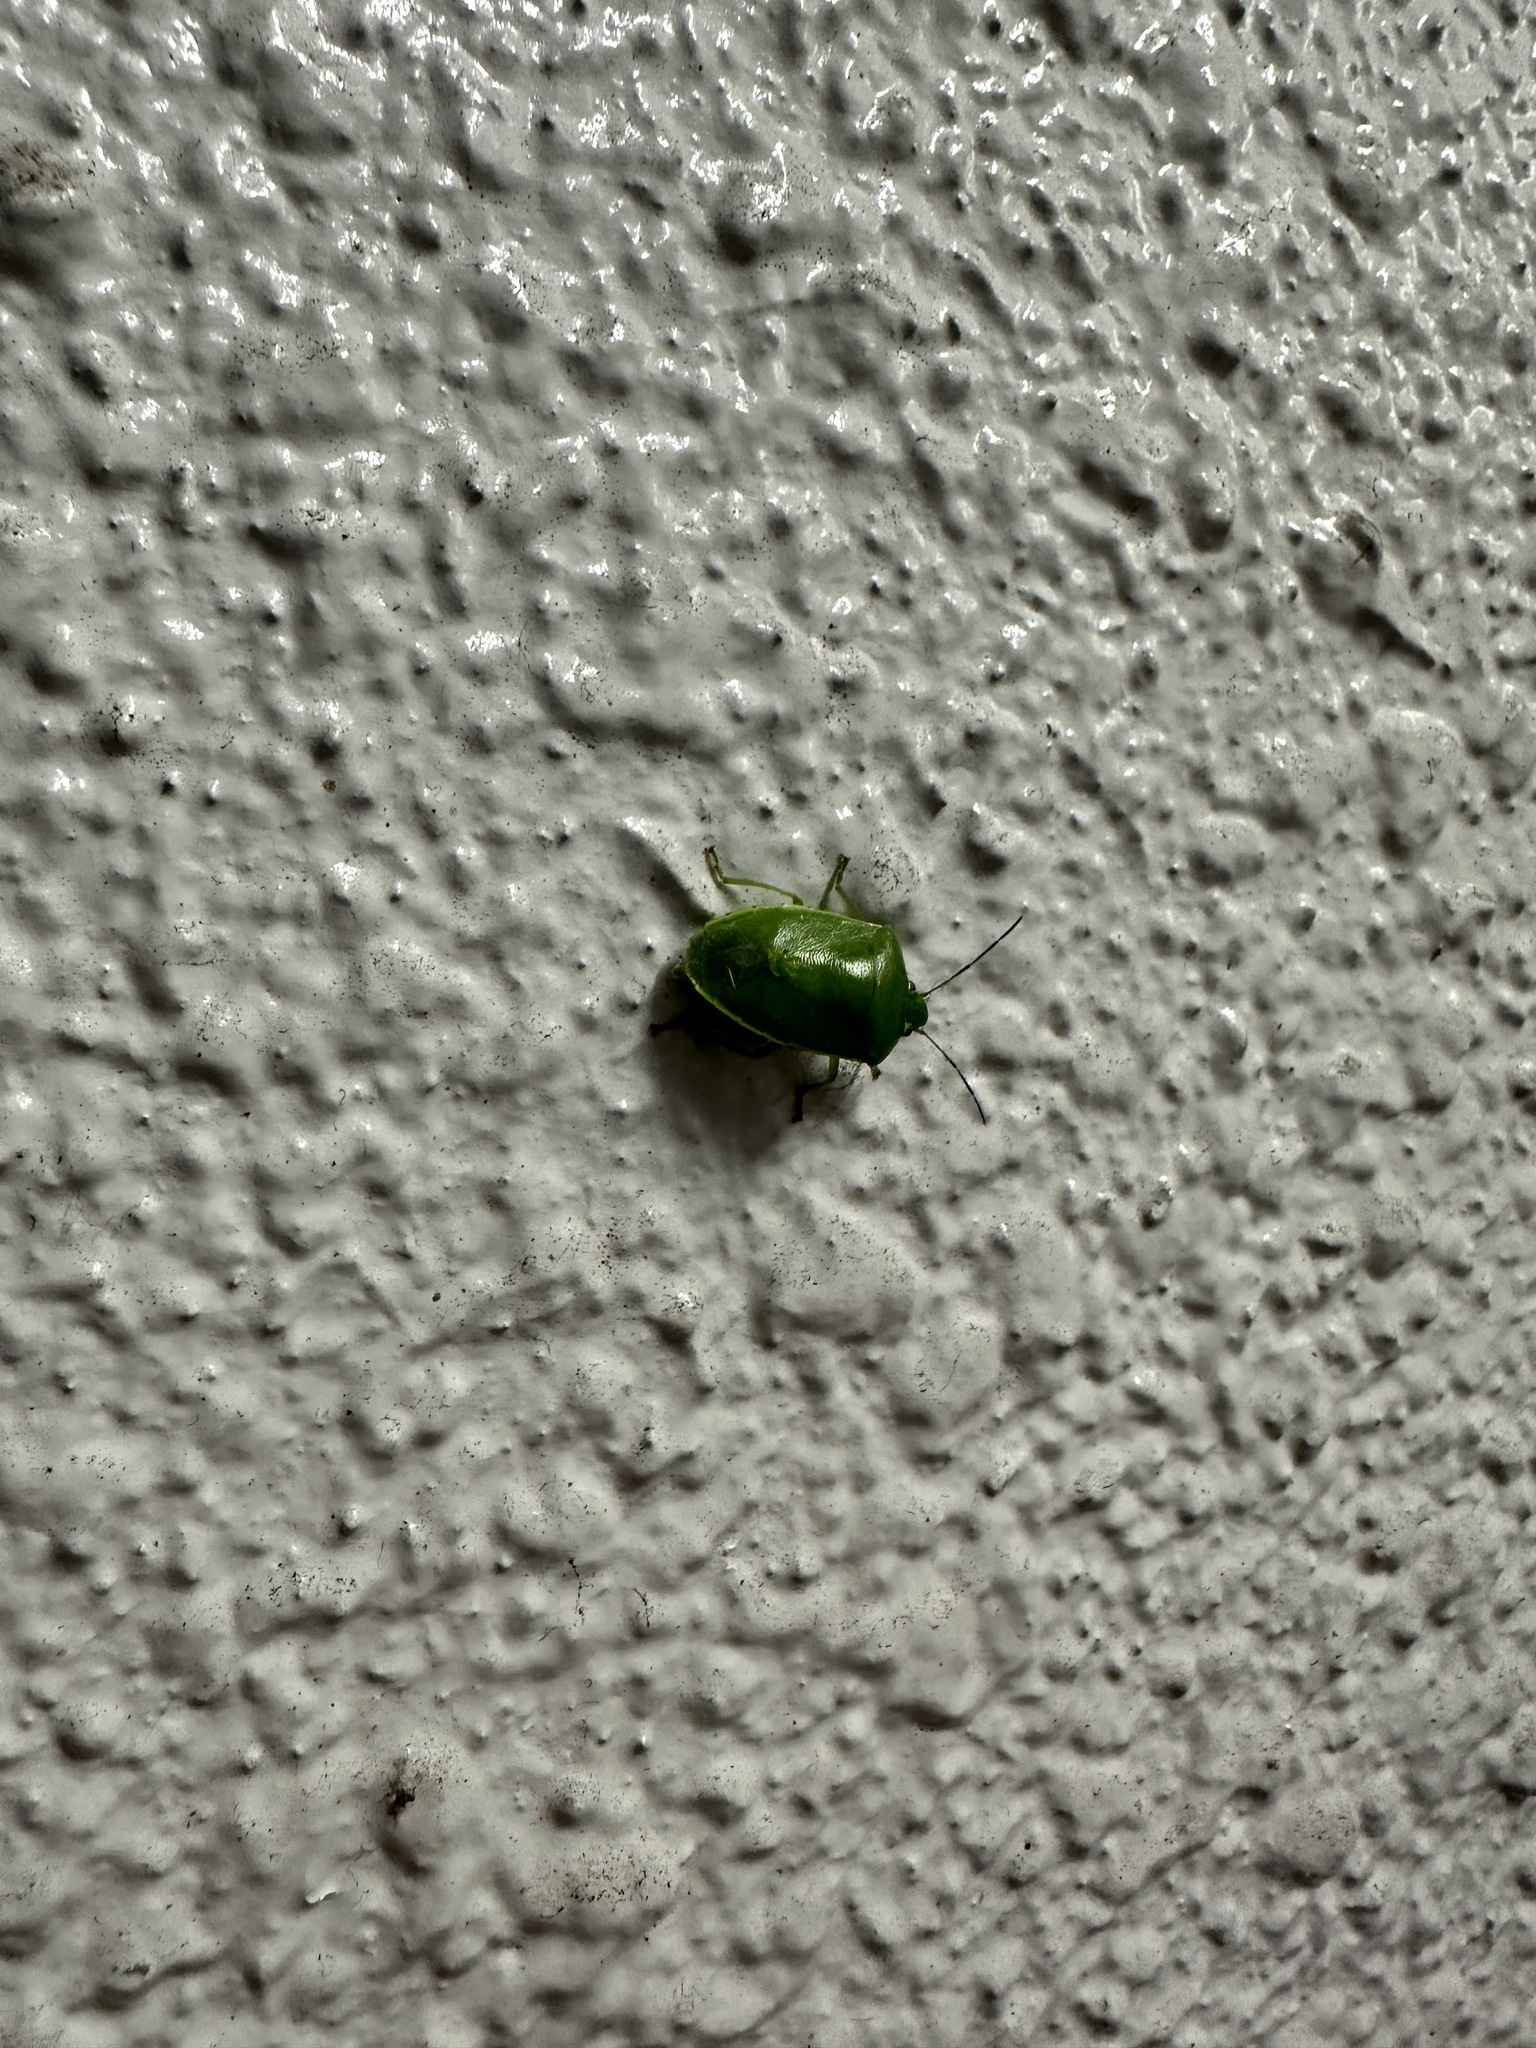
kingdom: Animalia
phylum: Arthropoda
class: Insecta
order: Hemiptera
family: Pentatomidae
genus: Glaucias
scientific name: Glaucias subpunctatus
